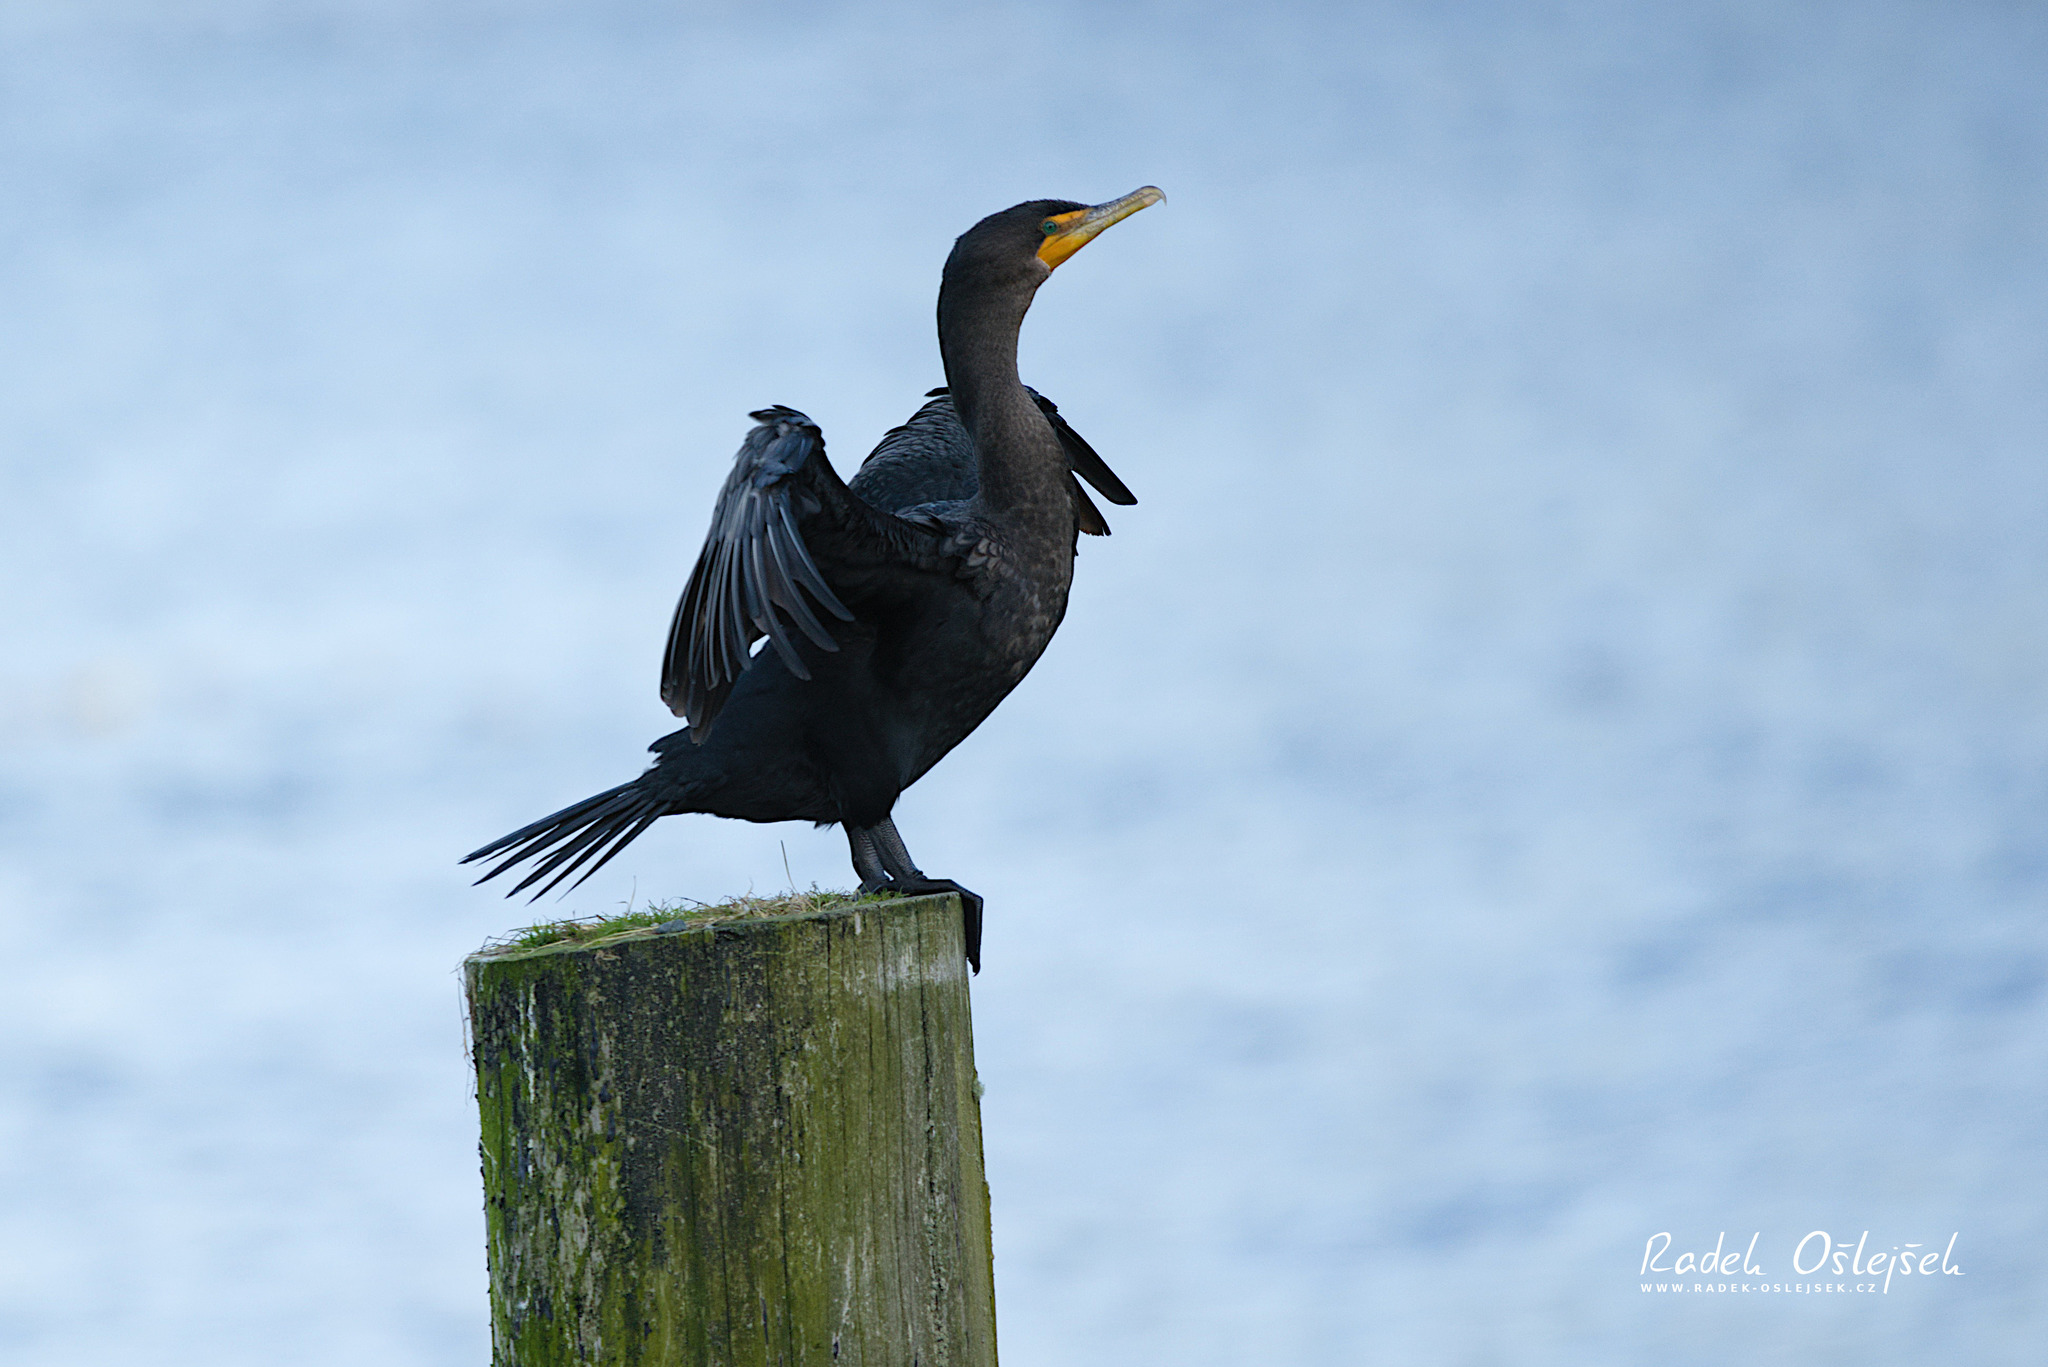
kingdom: Animalia
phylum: Chordata
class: Aves
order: Suliformes
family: Phalacrocoracidae
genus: Phalacrocorax
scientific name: Phalacrocorax auritus
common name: Double-crested cormorant
